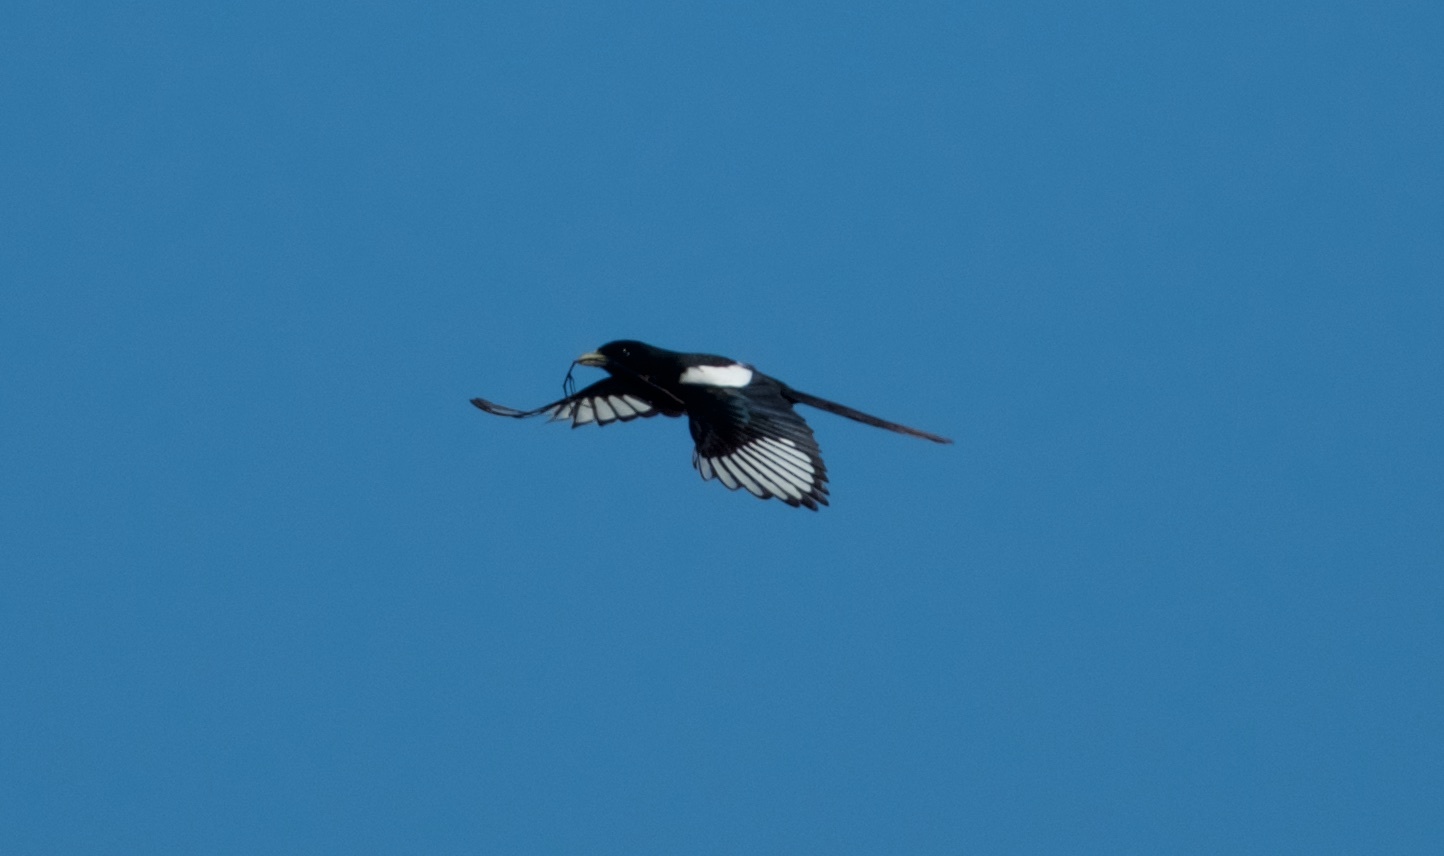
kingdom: Animalia
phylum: Chordata
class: Aves
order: Passeriformes
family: Corvidae
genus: Pica
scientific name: Pica nuttalli
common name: Yellow-billed magpie
